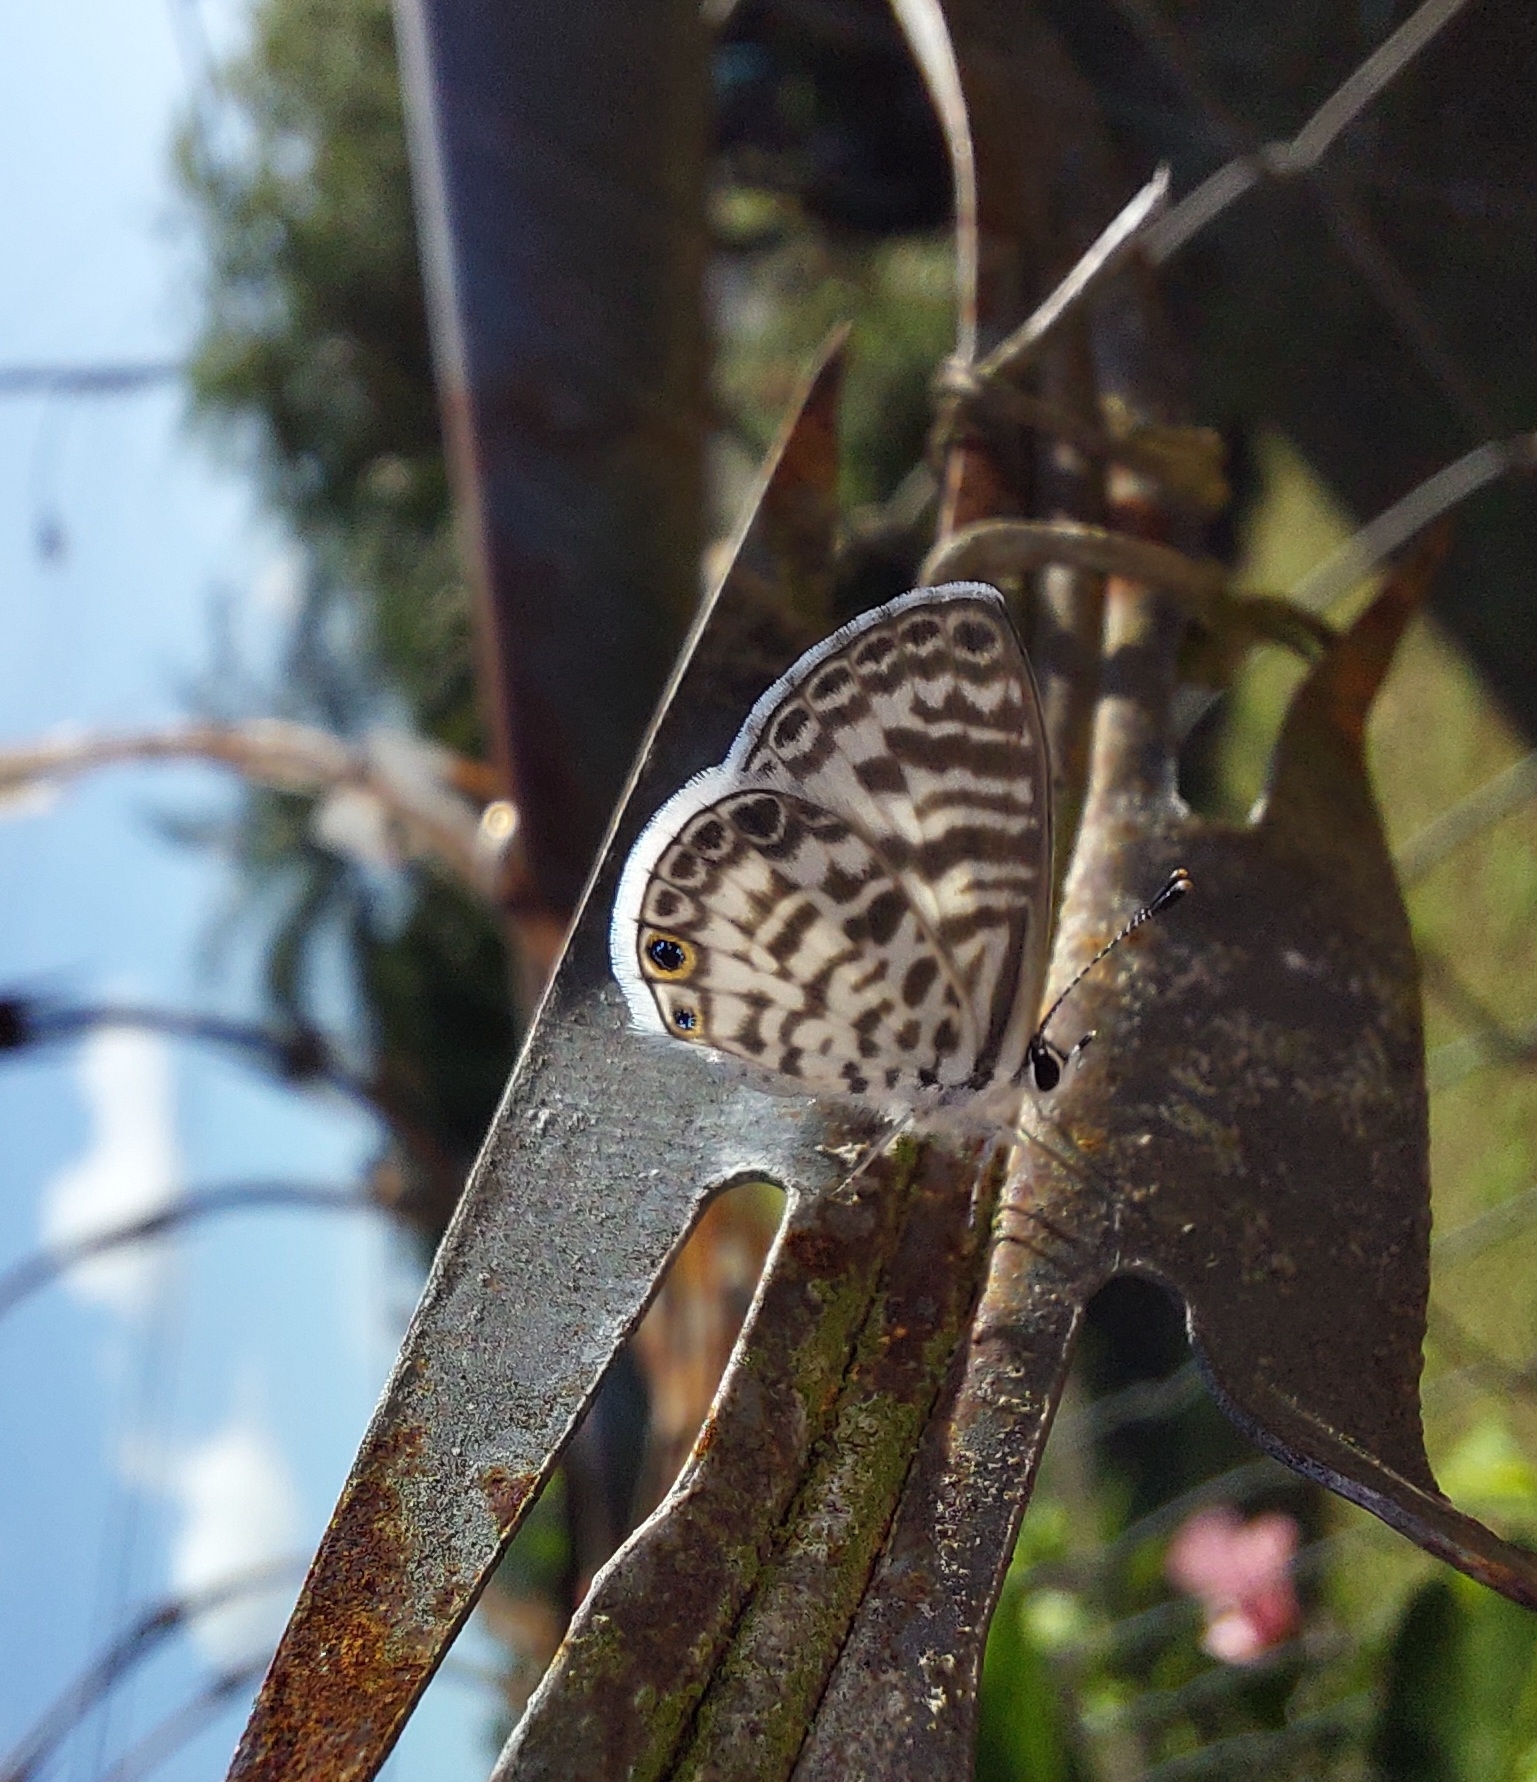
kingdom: Animalia
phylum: Arthropoda
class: Insecta
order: Lepidoptera
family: Lycaenidae
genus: Leptotes
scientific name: Leptotes cassius
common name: Cassius blue
